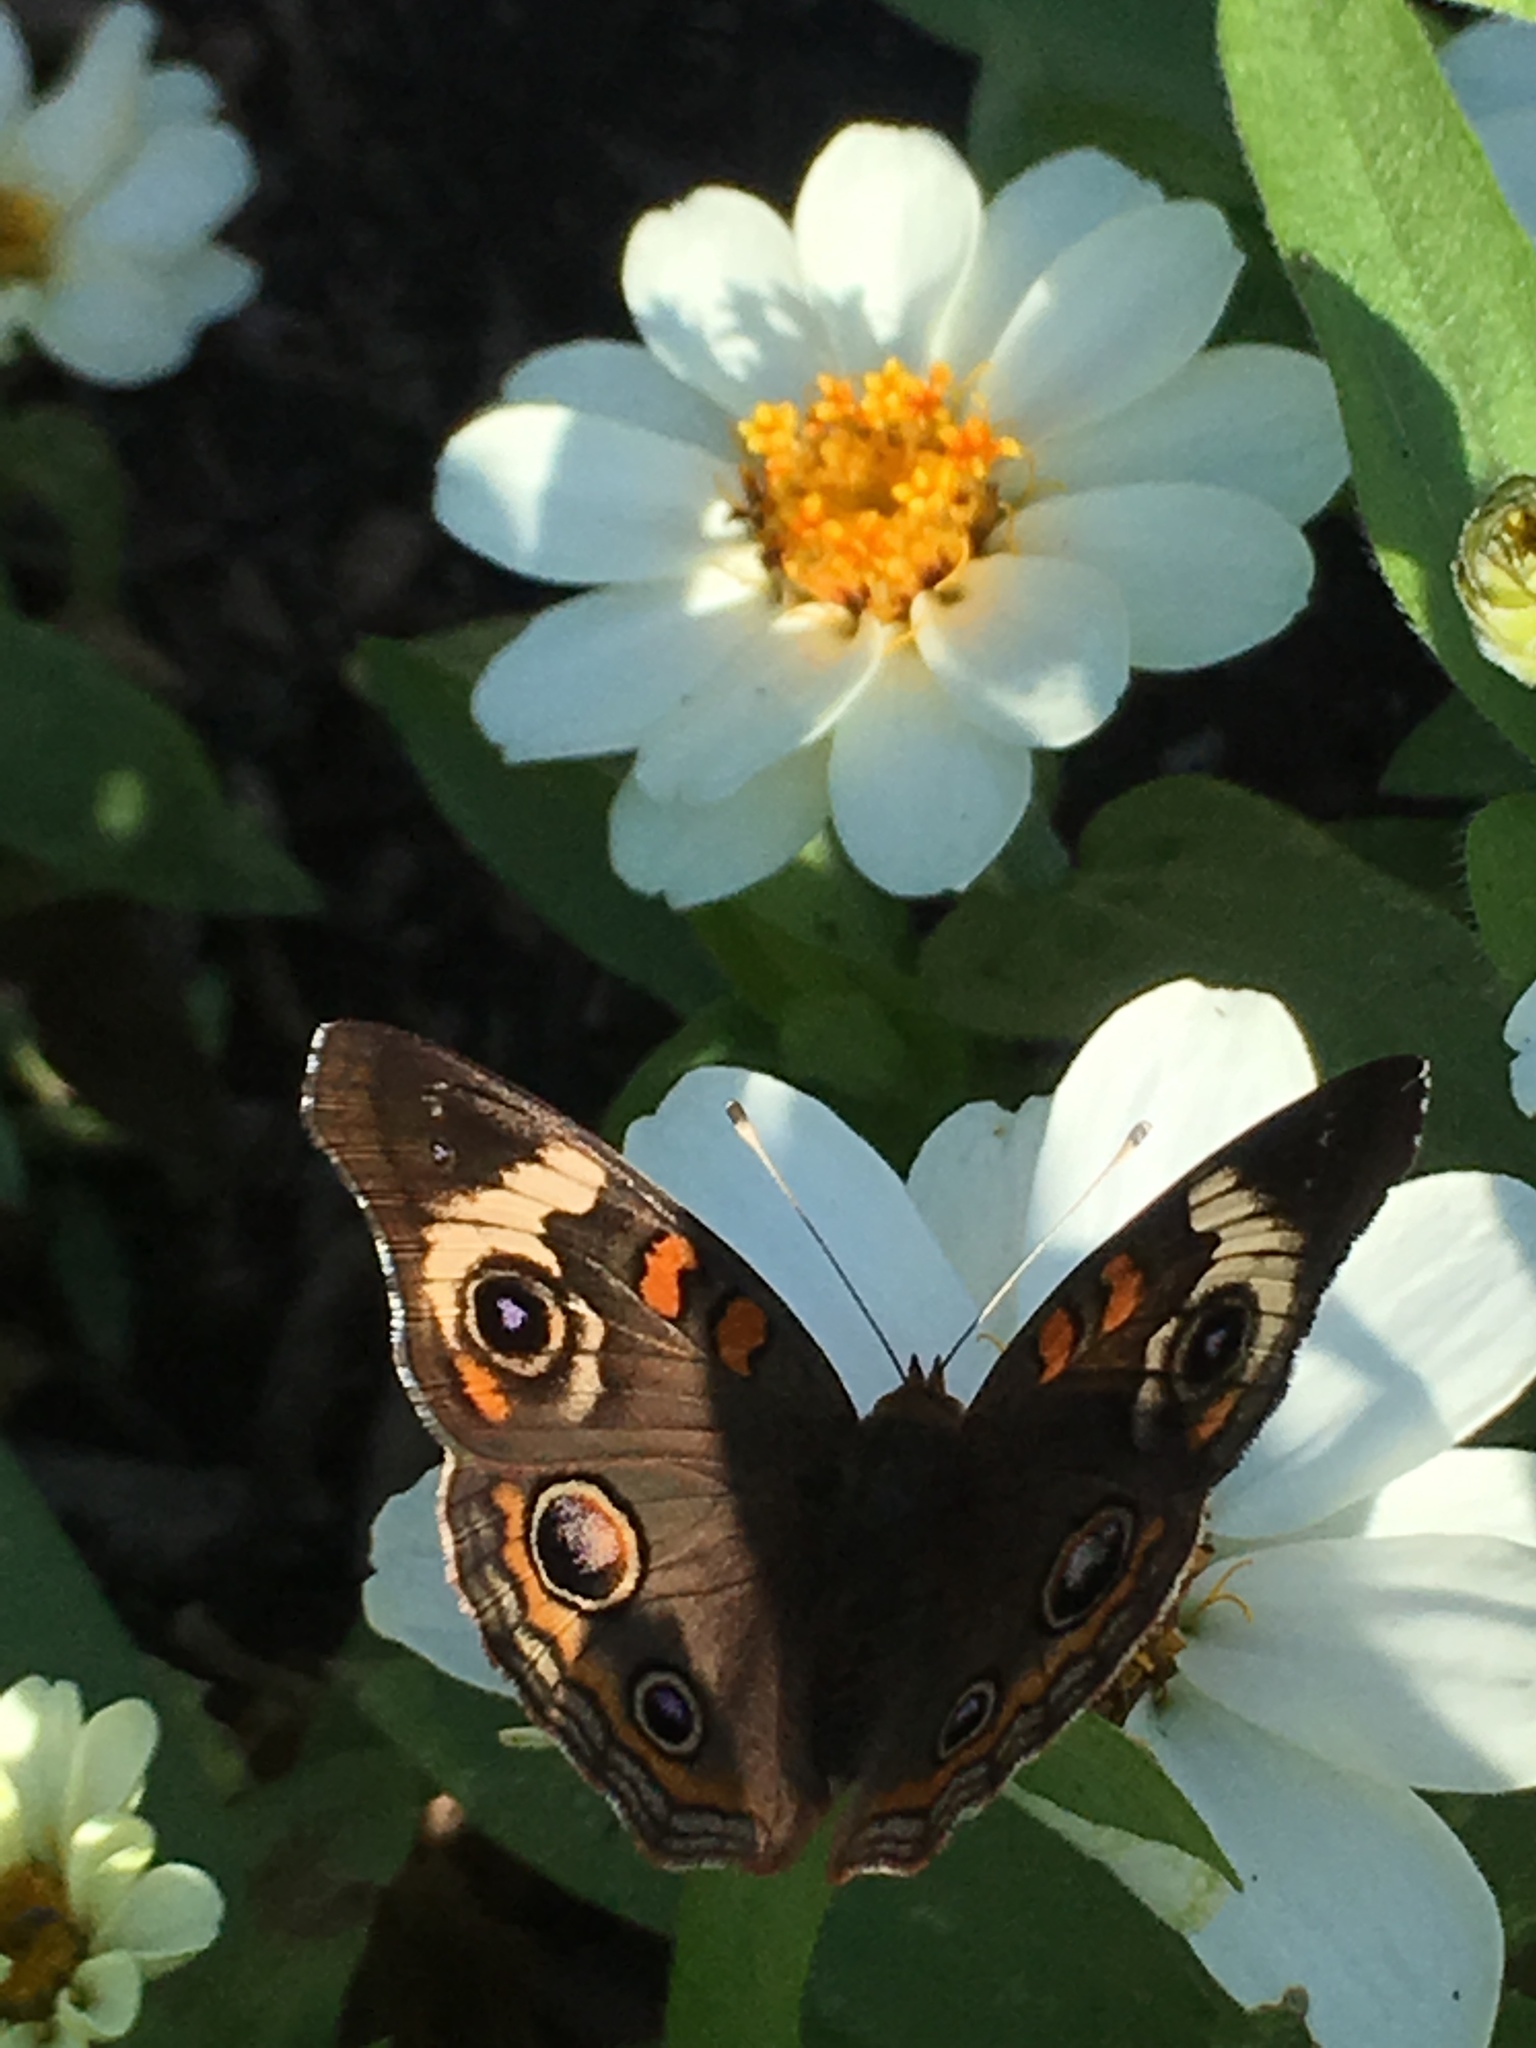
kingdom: Animalia
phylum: Arthropoda
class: Insecta
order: Lepidoptera
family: Nymphalidae
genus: Junonia
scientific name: Junonia coenia
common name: Common buckeye
